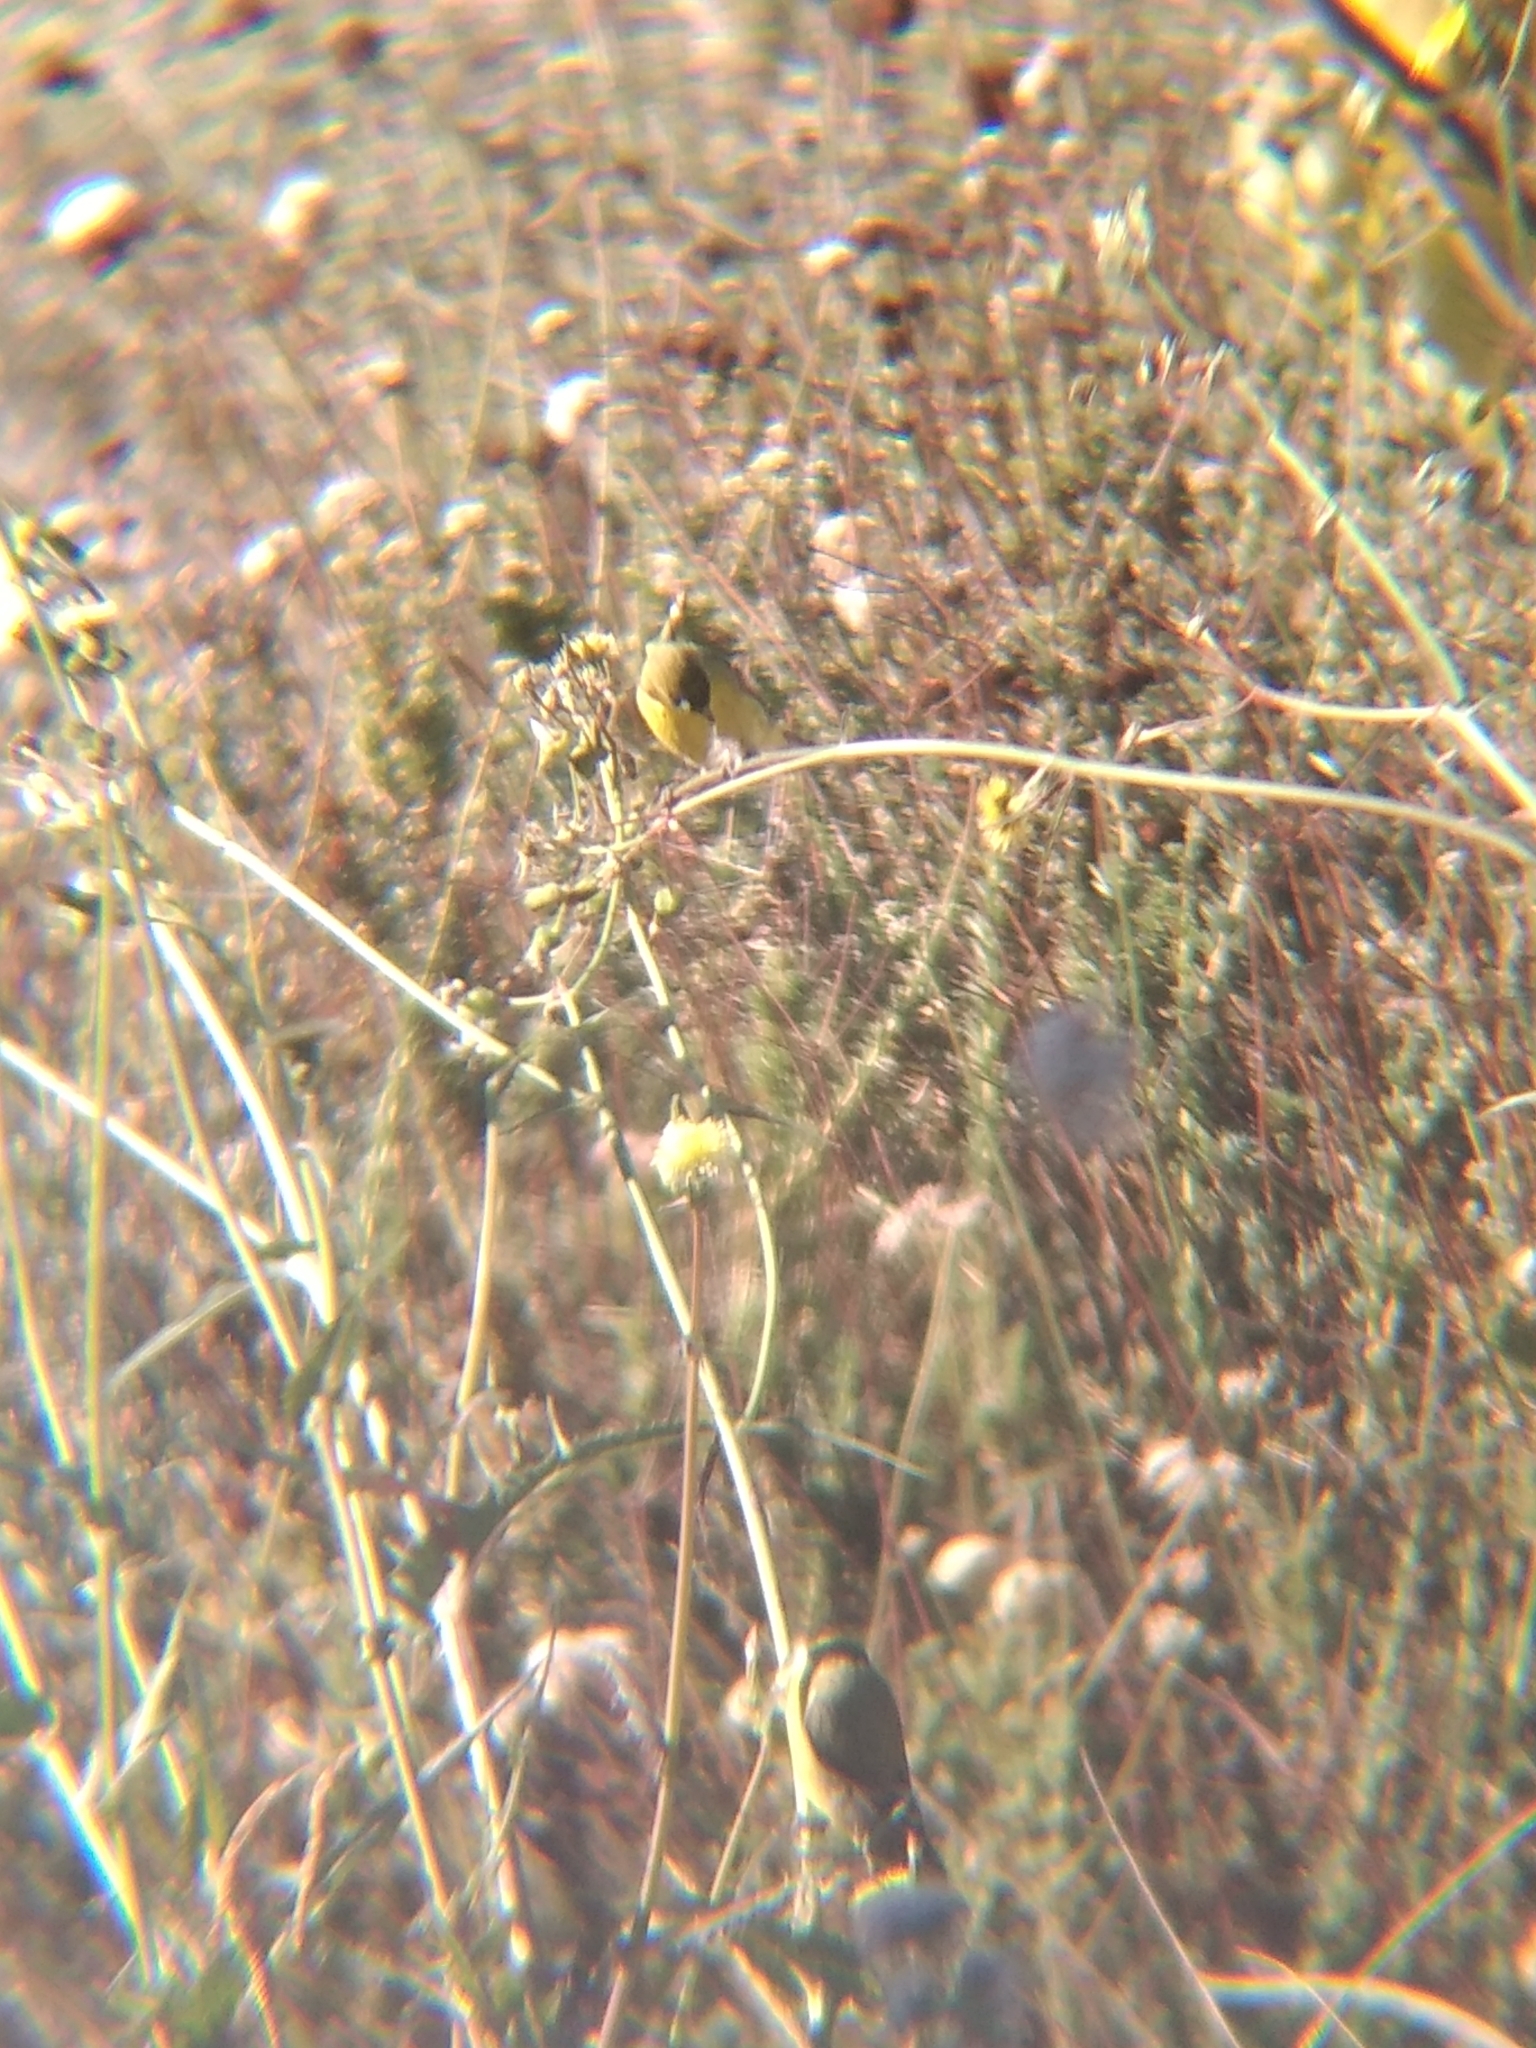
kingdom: Animalia
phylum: Chordata
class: Aves
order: Passeriformes
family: Fringillidae
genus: Spinus
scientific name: Spinus psaltria
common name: Lesser goldfinch
